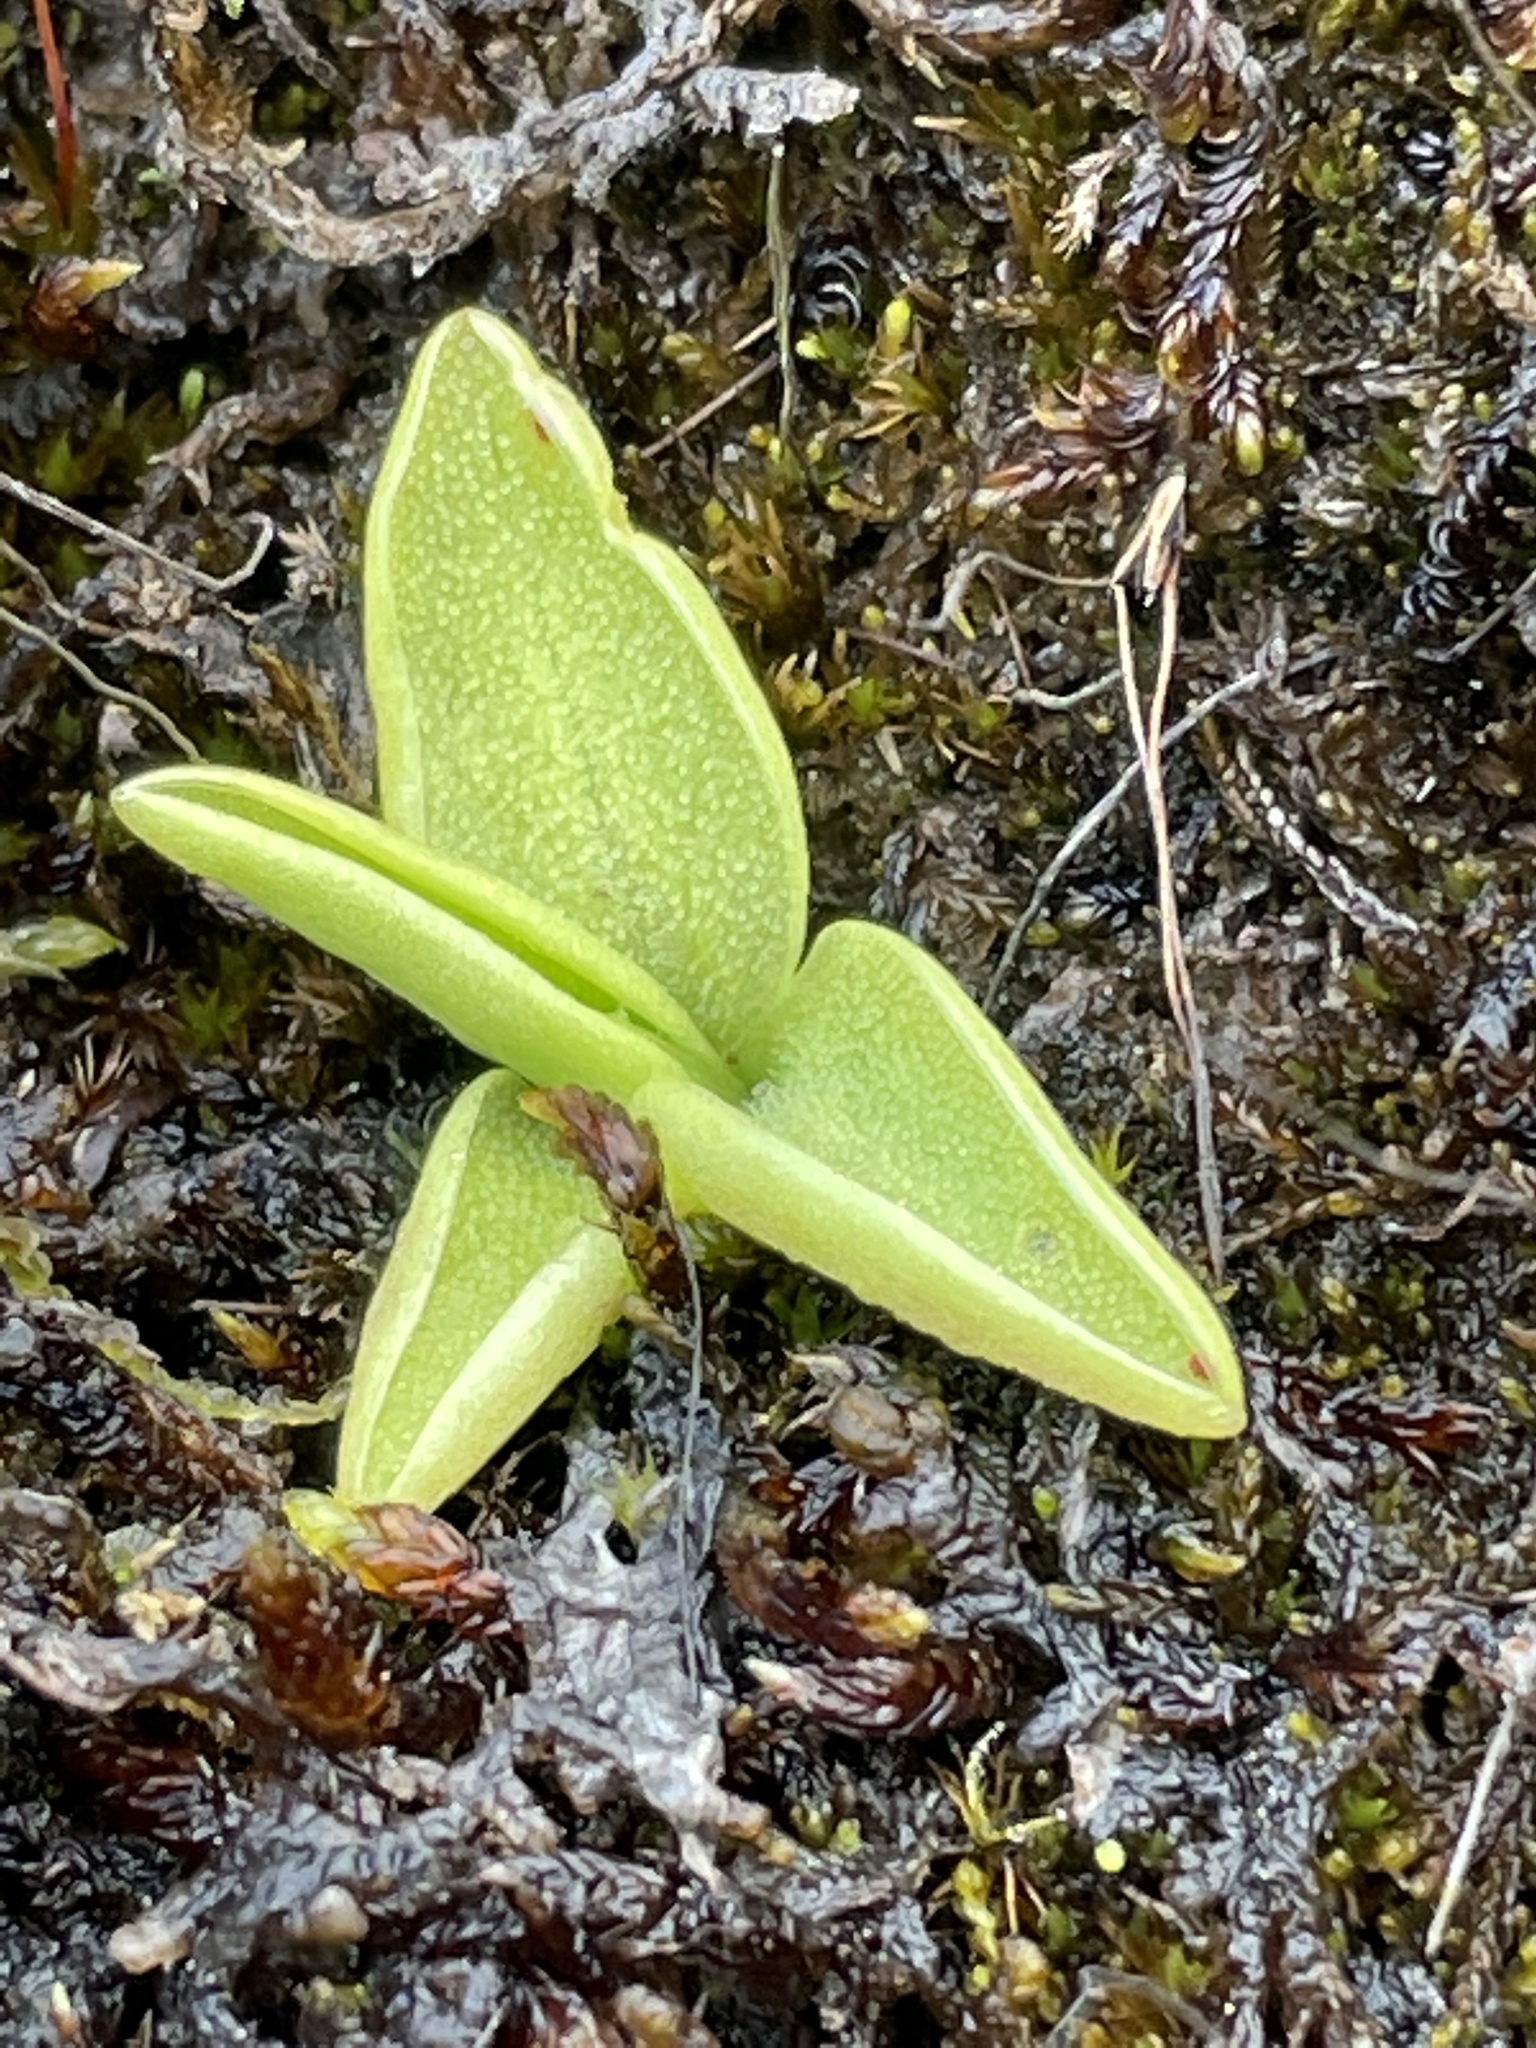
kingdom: Plantae
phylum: Tracheophyta
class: Magnoliopsida
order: Lamiales
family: Lentibulariaceae
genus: Pinguicula
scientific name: Pinguicula vulgaris
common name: Common butterwort
